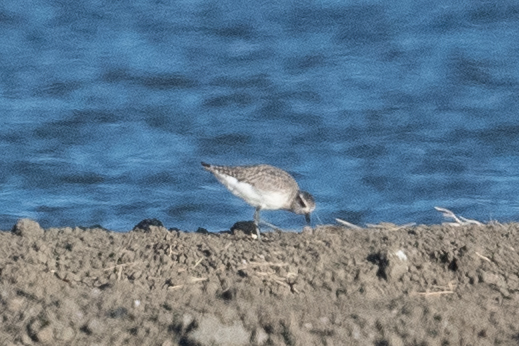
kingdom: Animalia
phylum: Chordata
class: Aves
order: Charadriiformes
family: Charadriidae
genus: Pluvialis
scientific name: Pluvialis squatarola
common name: Grey plover
